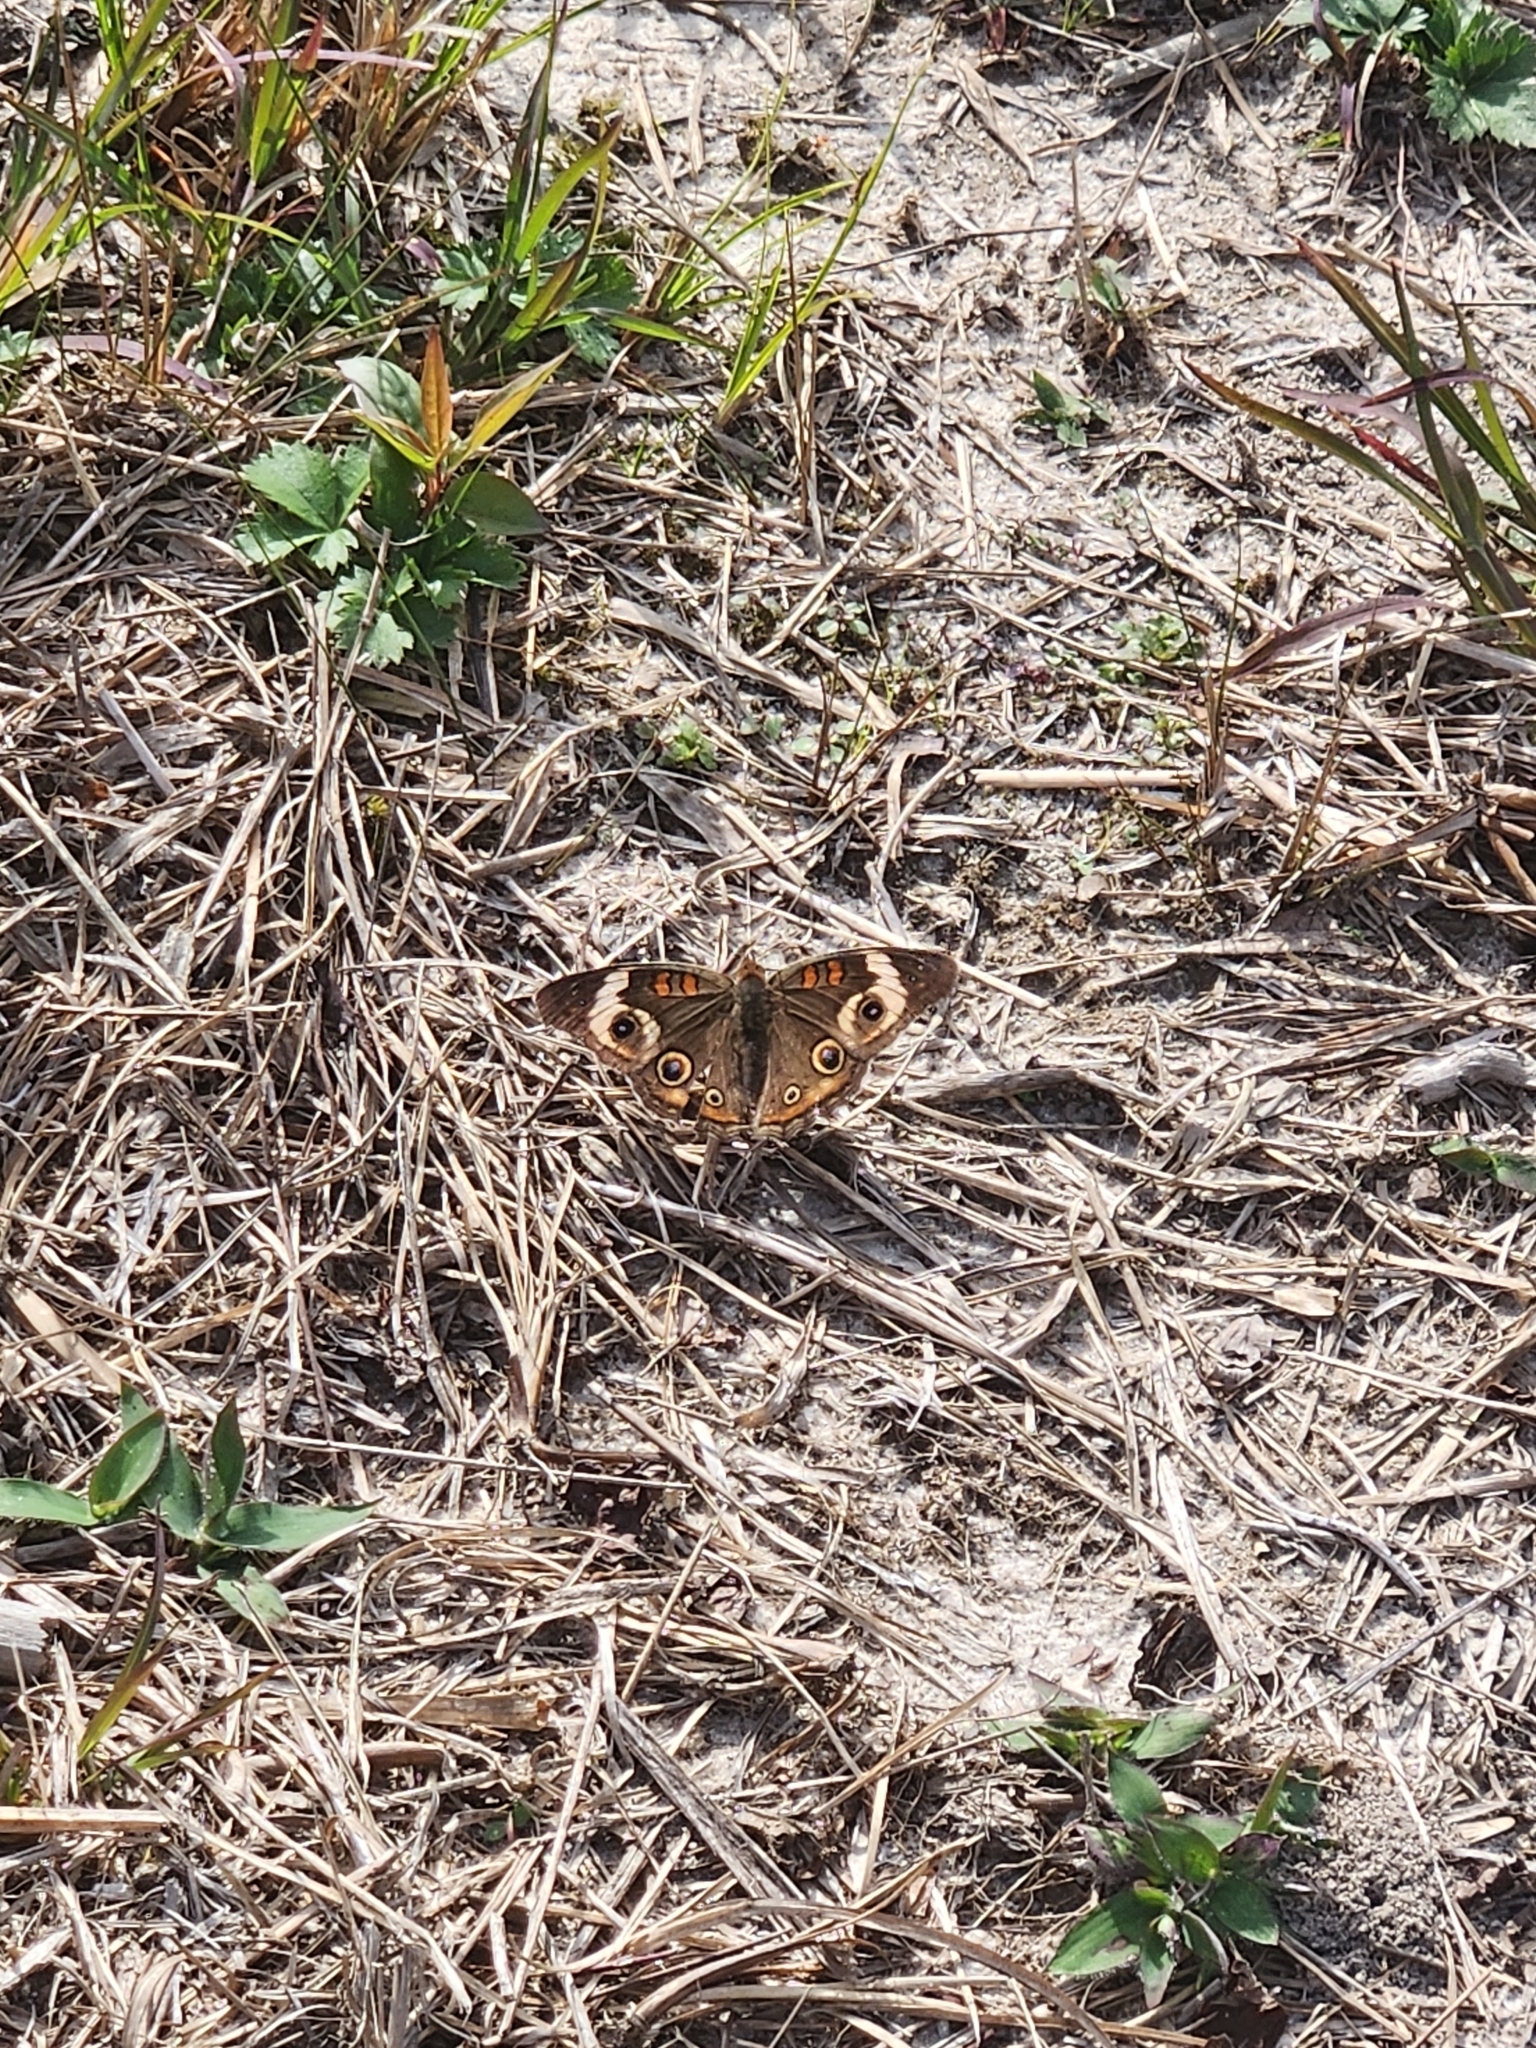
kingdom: Animalia
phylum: Arthropoda
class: Insecta
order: Lepidoptera
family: Nymphalidae
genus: Junonia
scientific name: Junonia coenia
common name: Common buckeye
